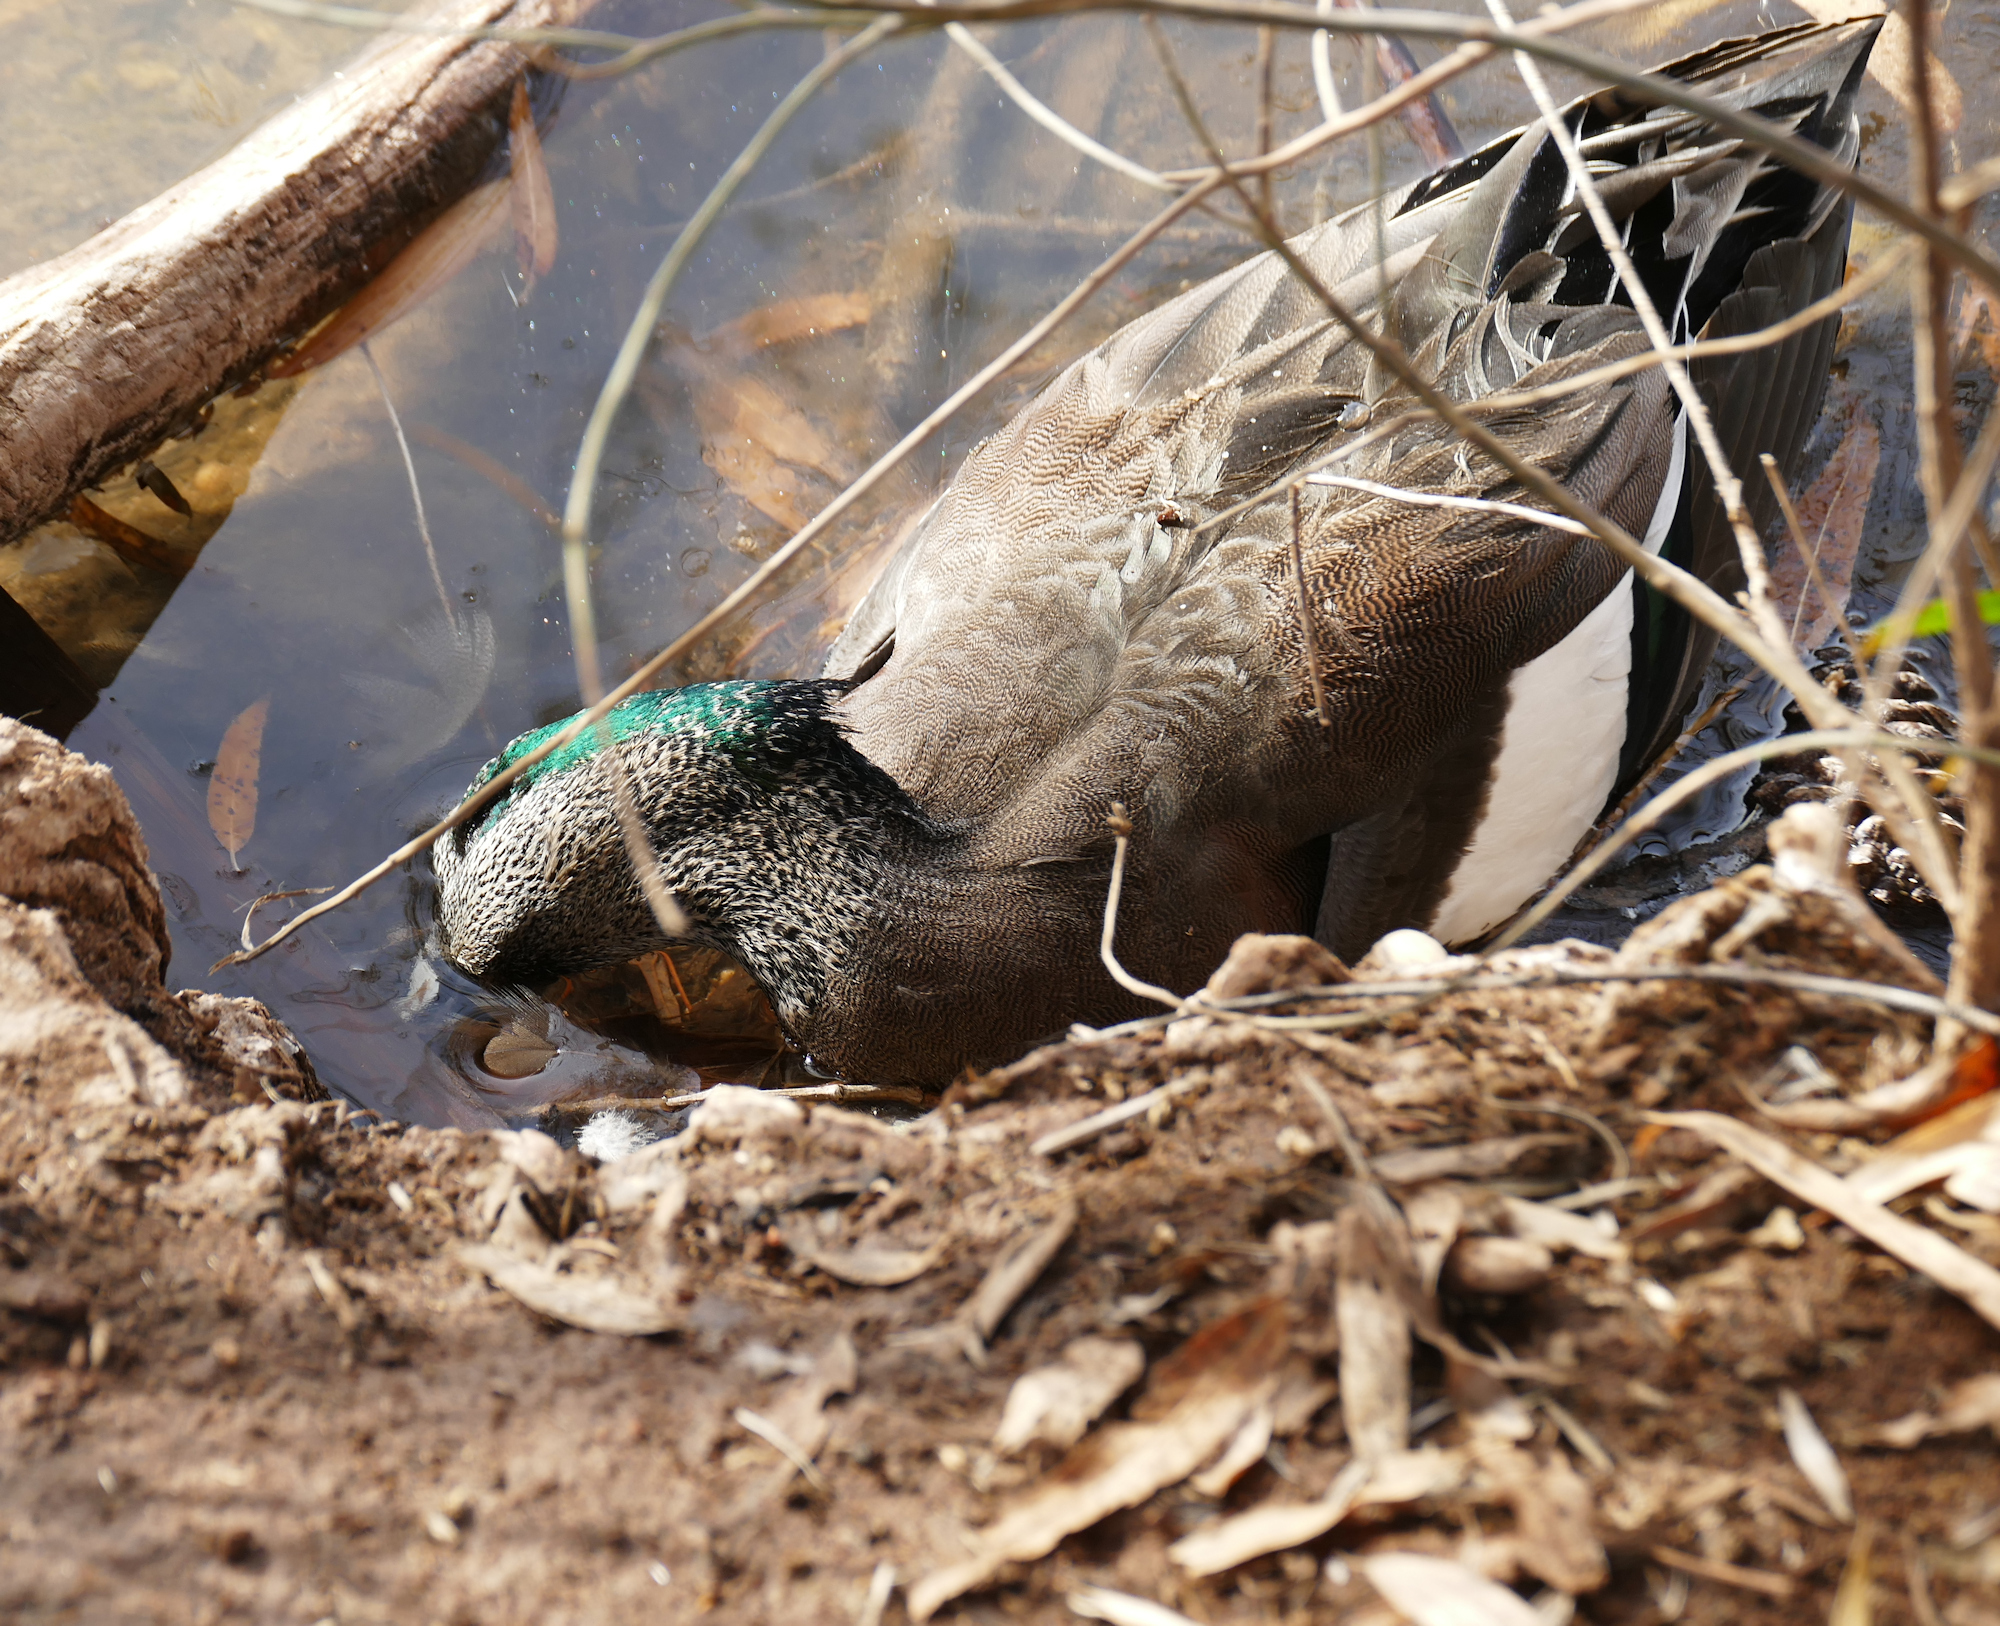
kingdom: Animalia
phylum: Chordata
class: Aves
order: Anseriformes
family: Anatidae
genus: Mareca
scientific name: Mareca americana
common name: American wigeon
